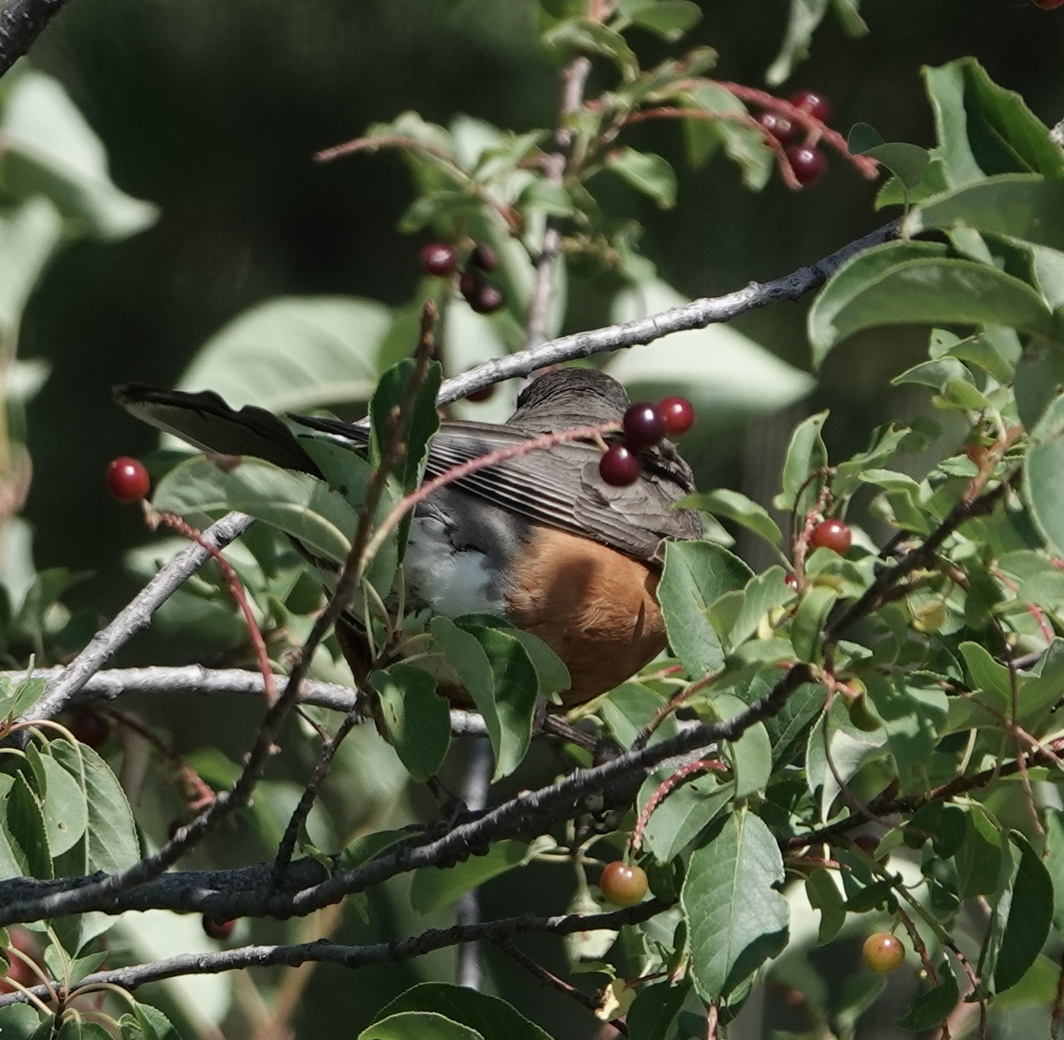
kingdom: Animalia
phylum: Chordata
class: Aves
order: Passeriformes
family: Turdidae
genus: Turdus
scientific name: Turdus migratorius
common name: American robin
